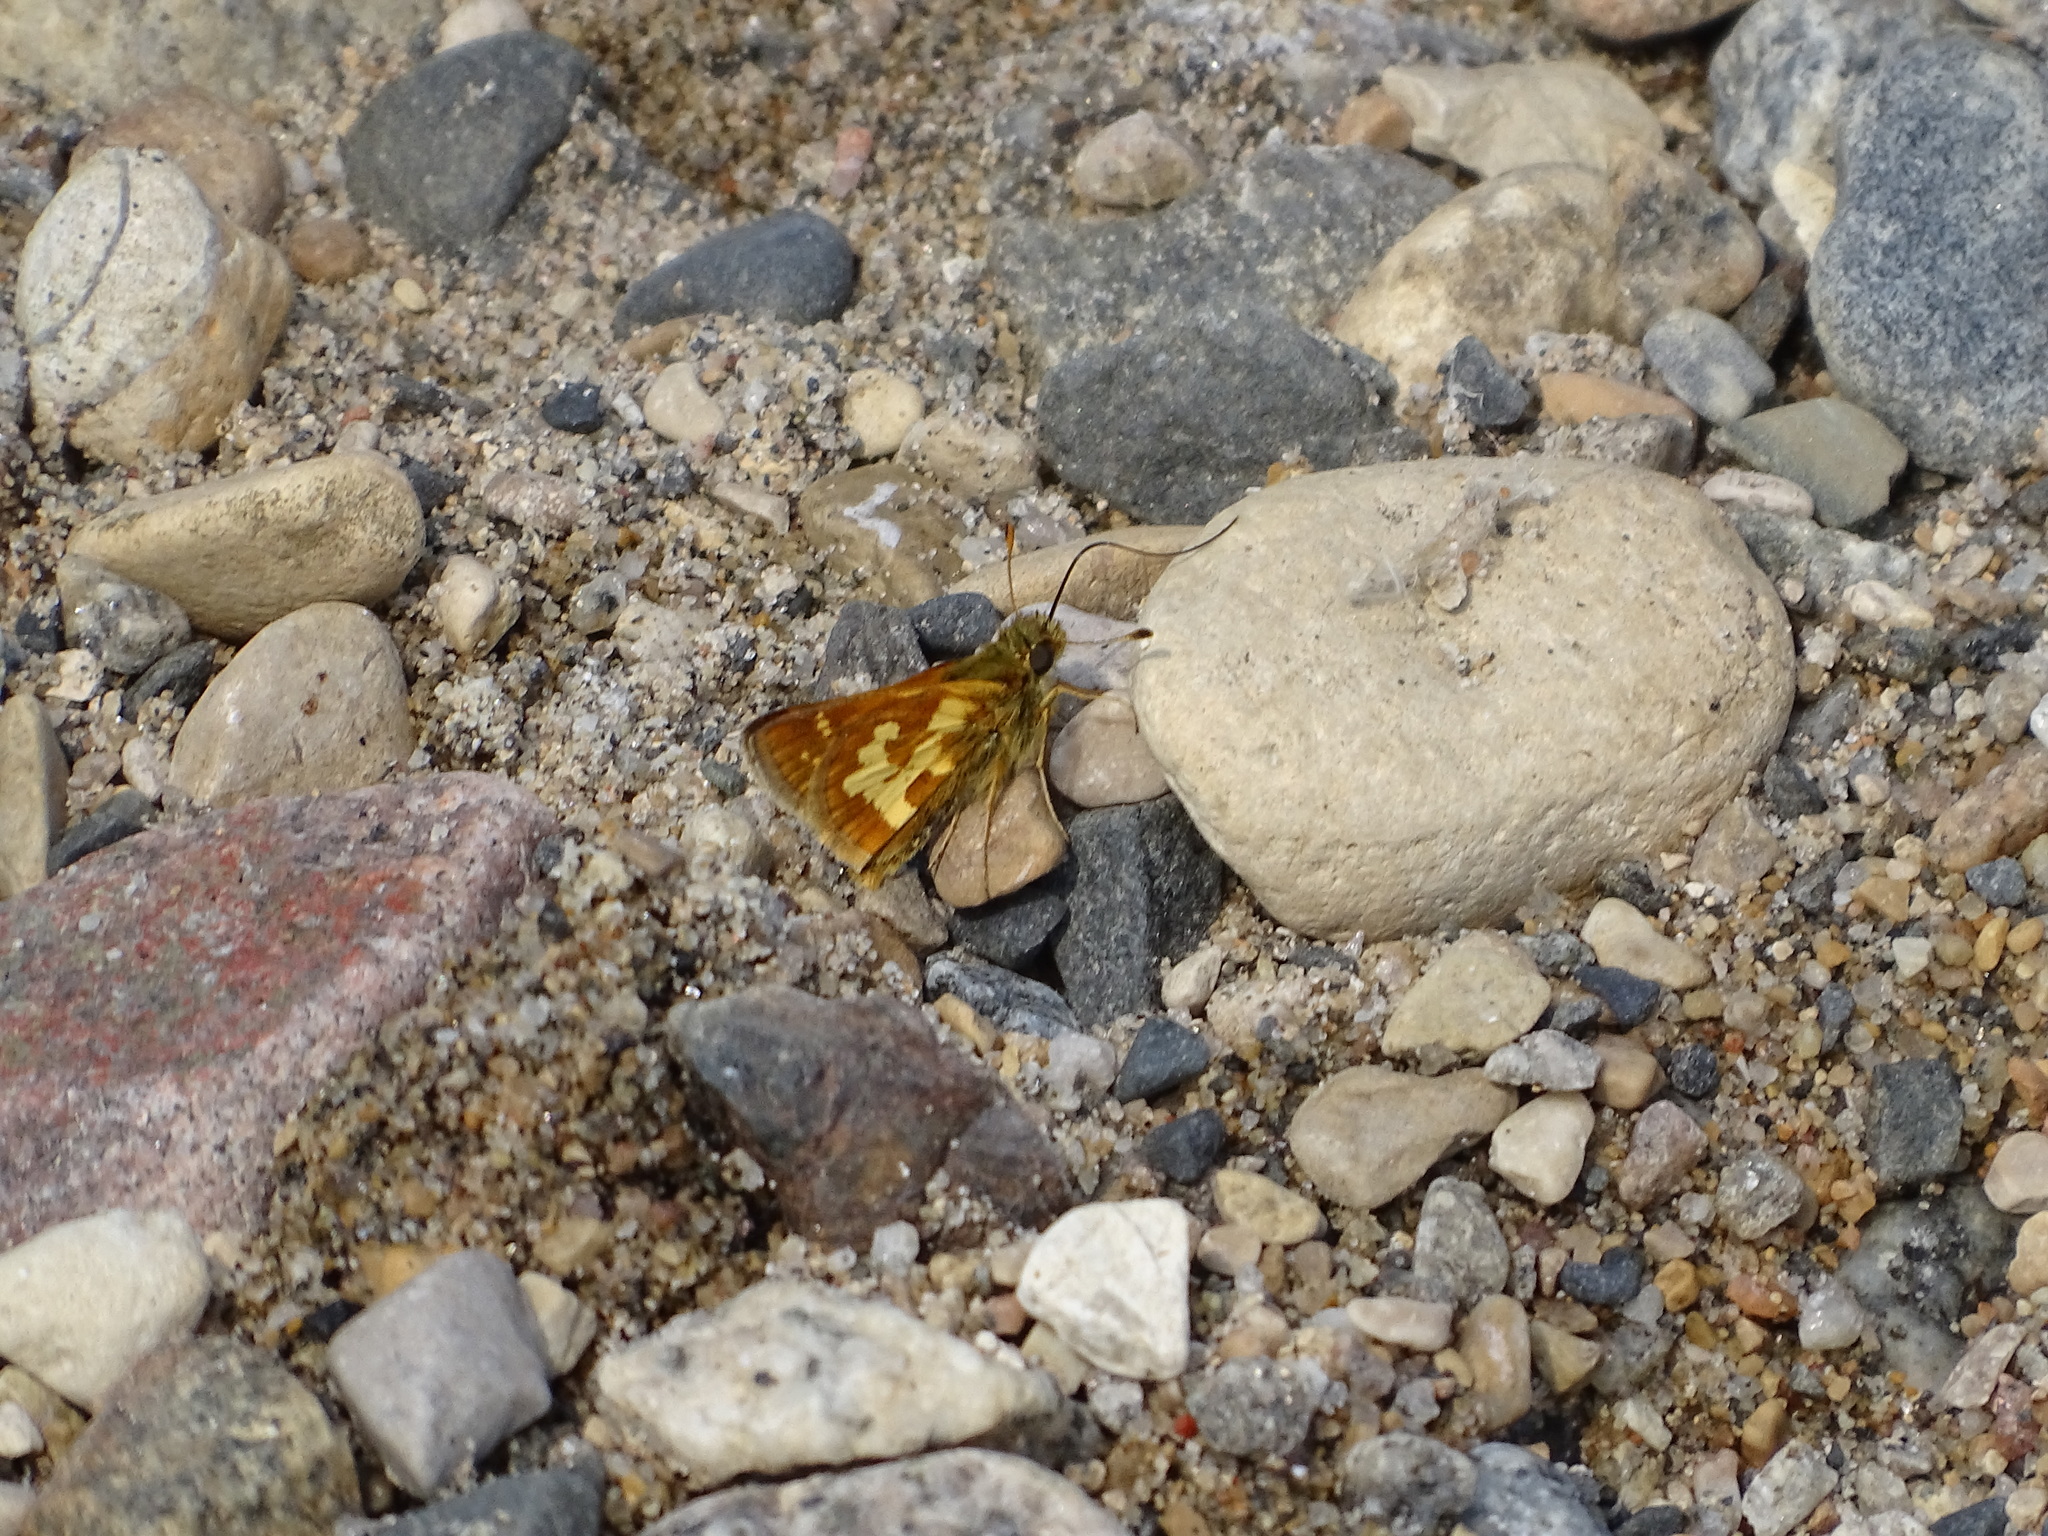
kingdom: Animalia
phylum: Arthropoda
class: Insecta
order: Lepidoptera
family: Hesperiidae
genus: Polites
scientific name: Polites coras
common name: Peck's skipper
